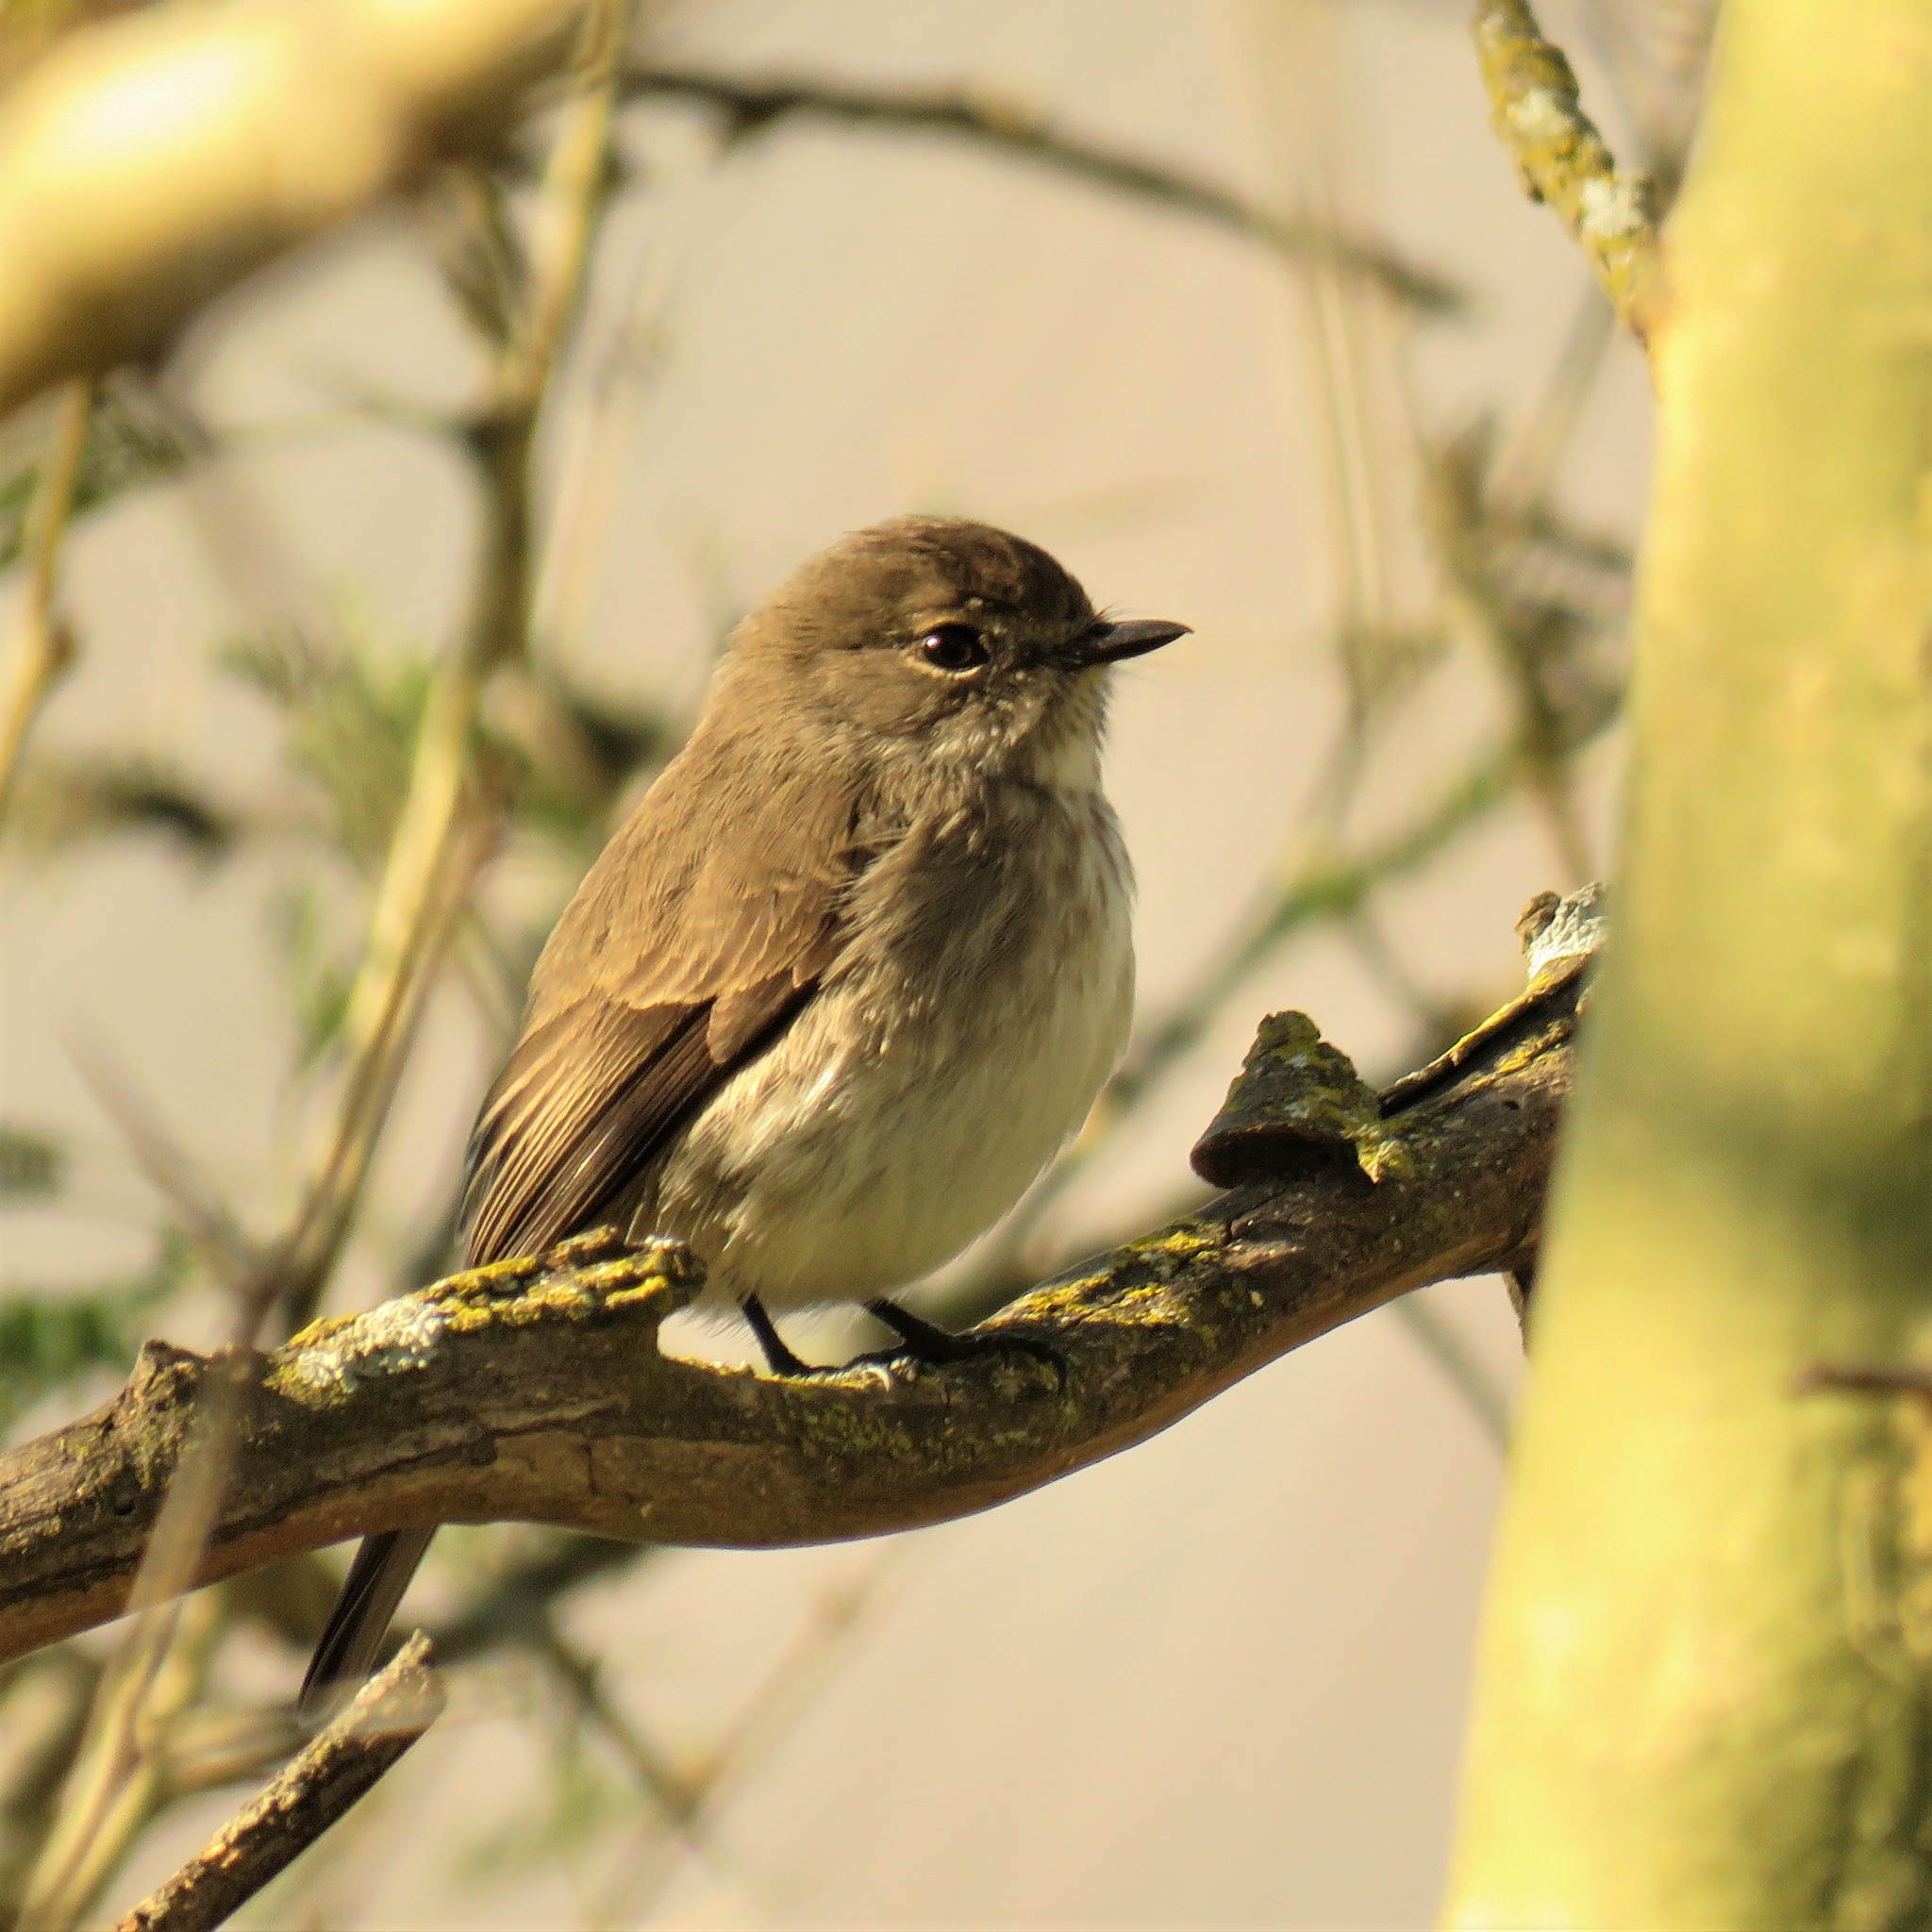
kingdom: Animalia
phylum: Chordata
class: Aves
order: Passeriformes
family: Muscicapidae
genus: Muscicapa
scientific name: Muscicapa adusta
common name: African dusky flycatcher
